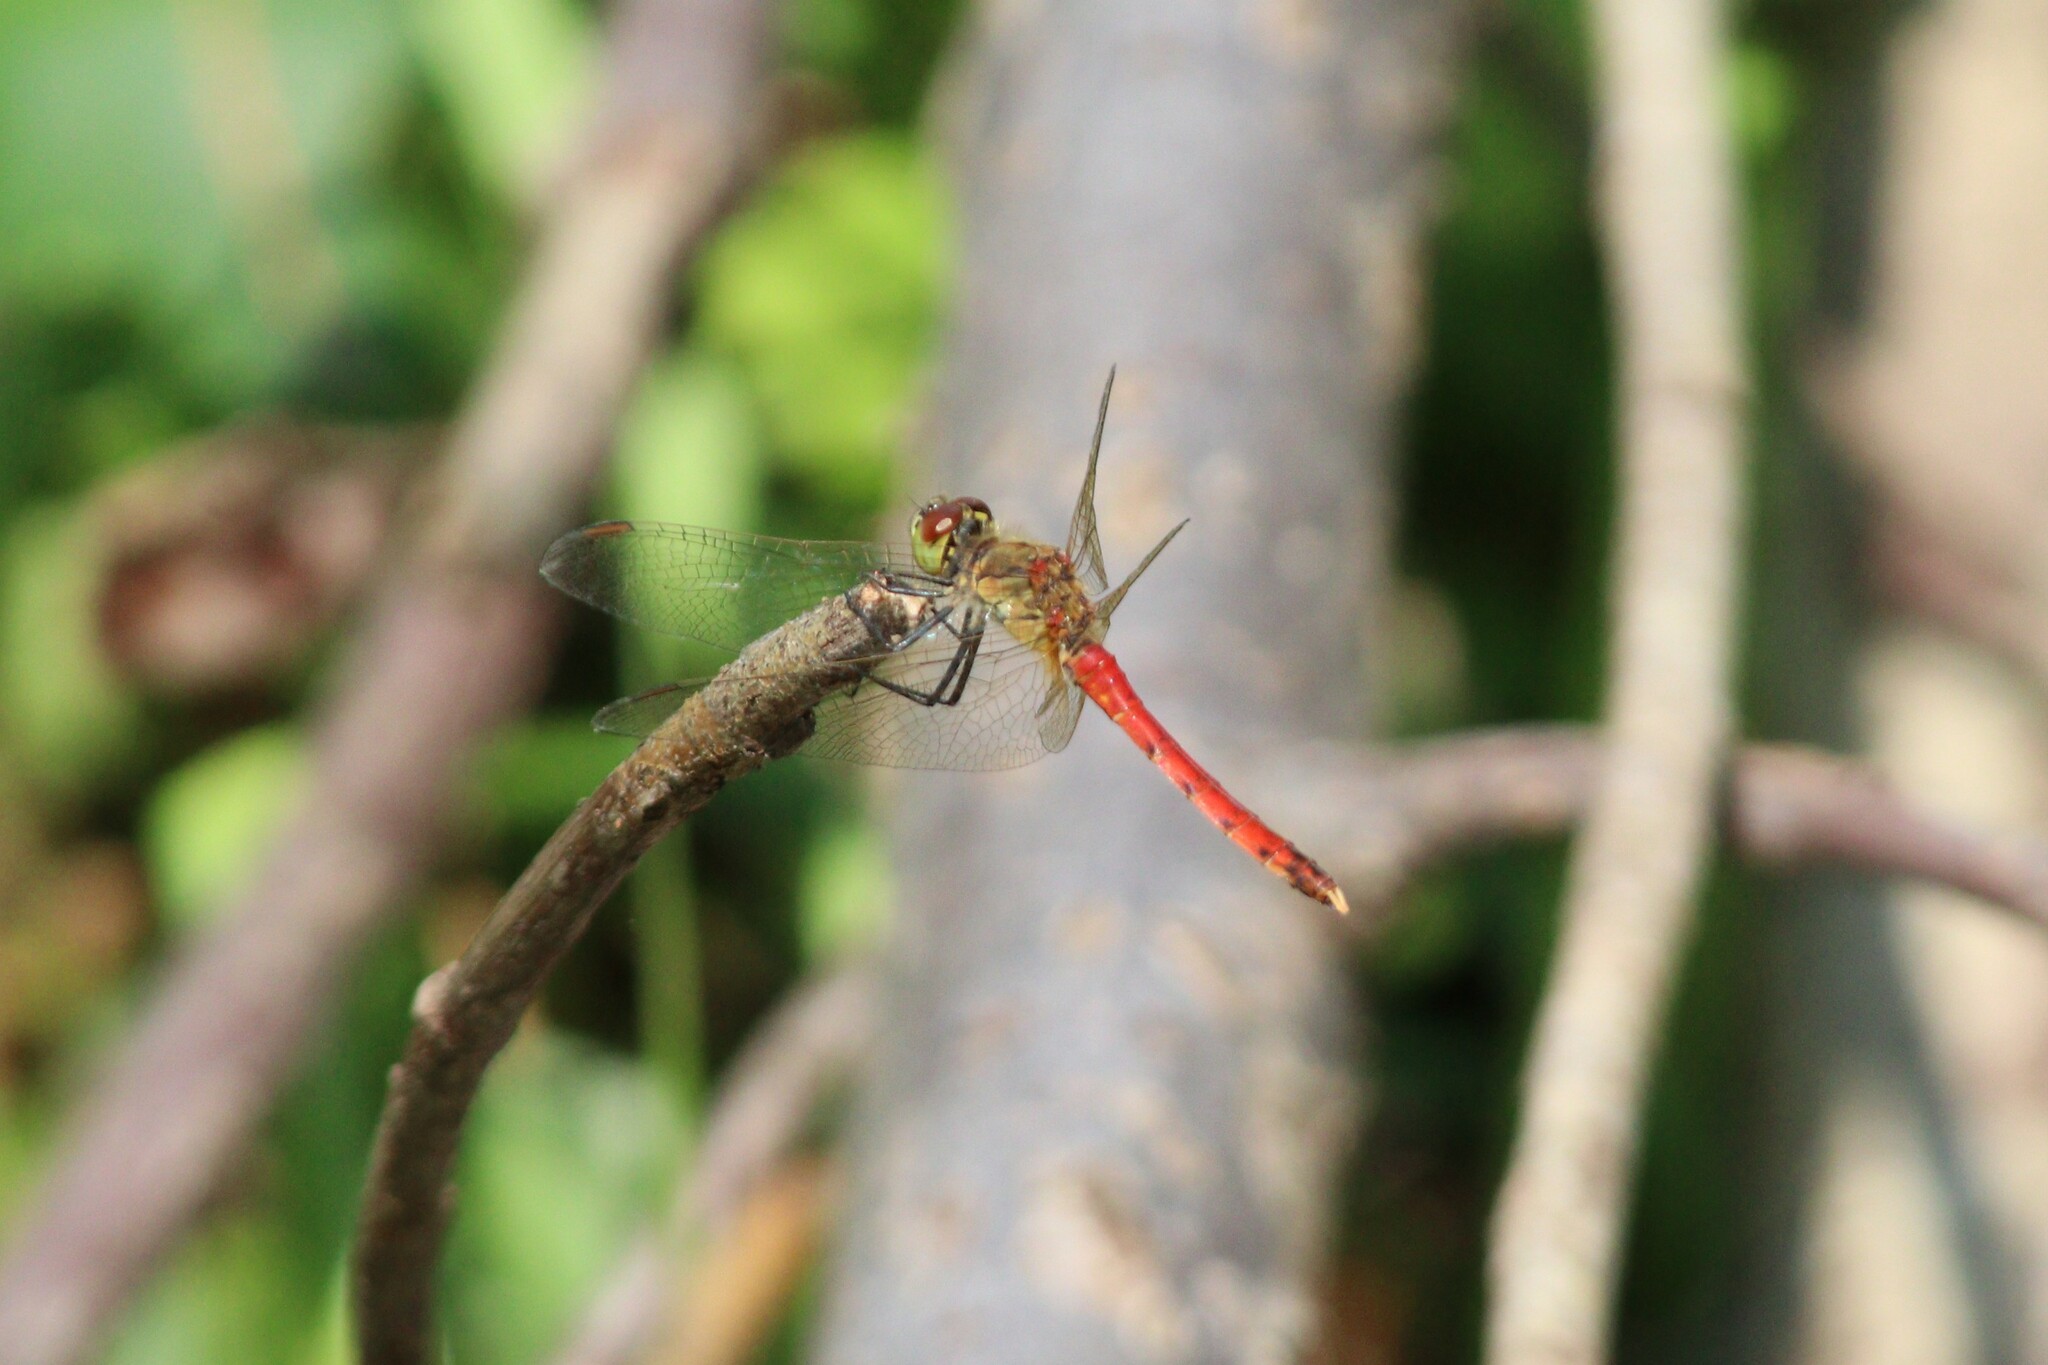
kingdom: Animalia
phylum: Arthropoda
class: Insecta
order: Odonata
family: Libellulidae
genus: Sympetrum
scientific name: Sympetrum depressiusculum
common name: Spotted darter
